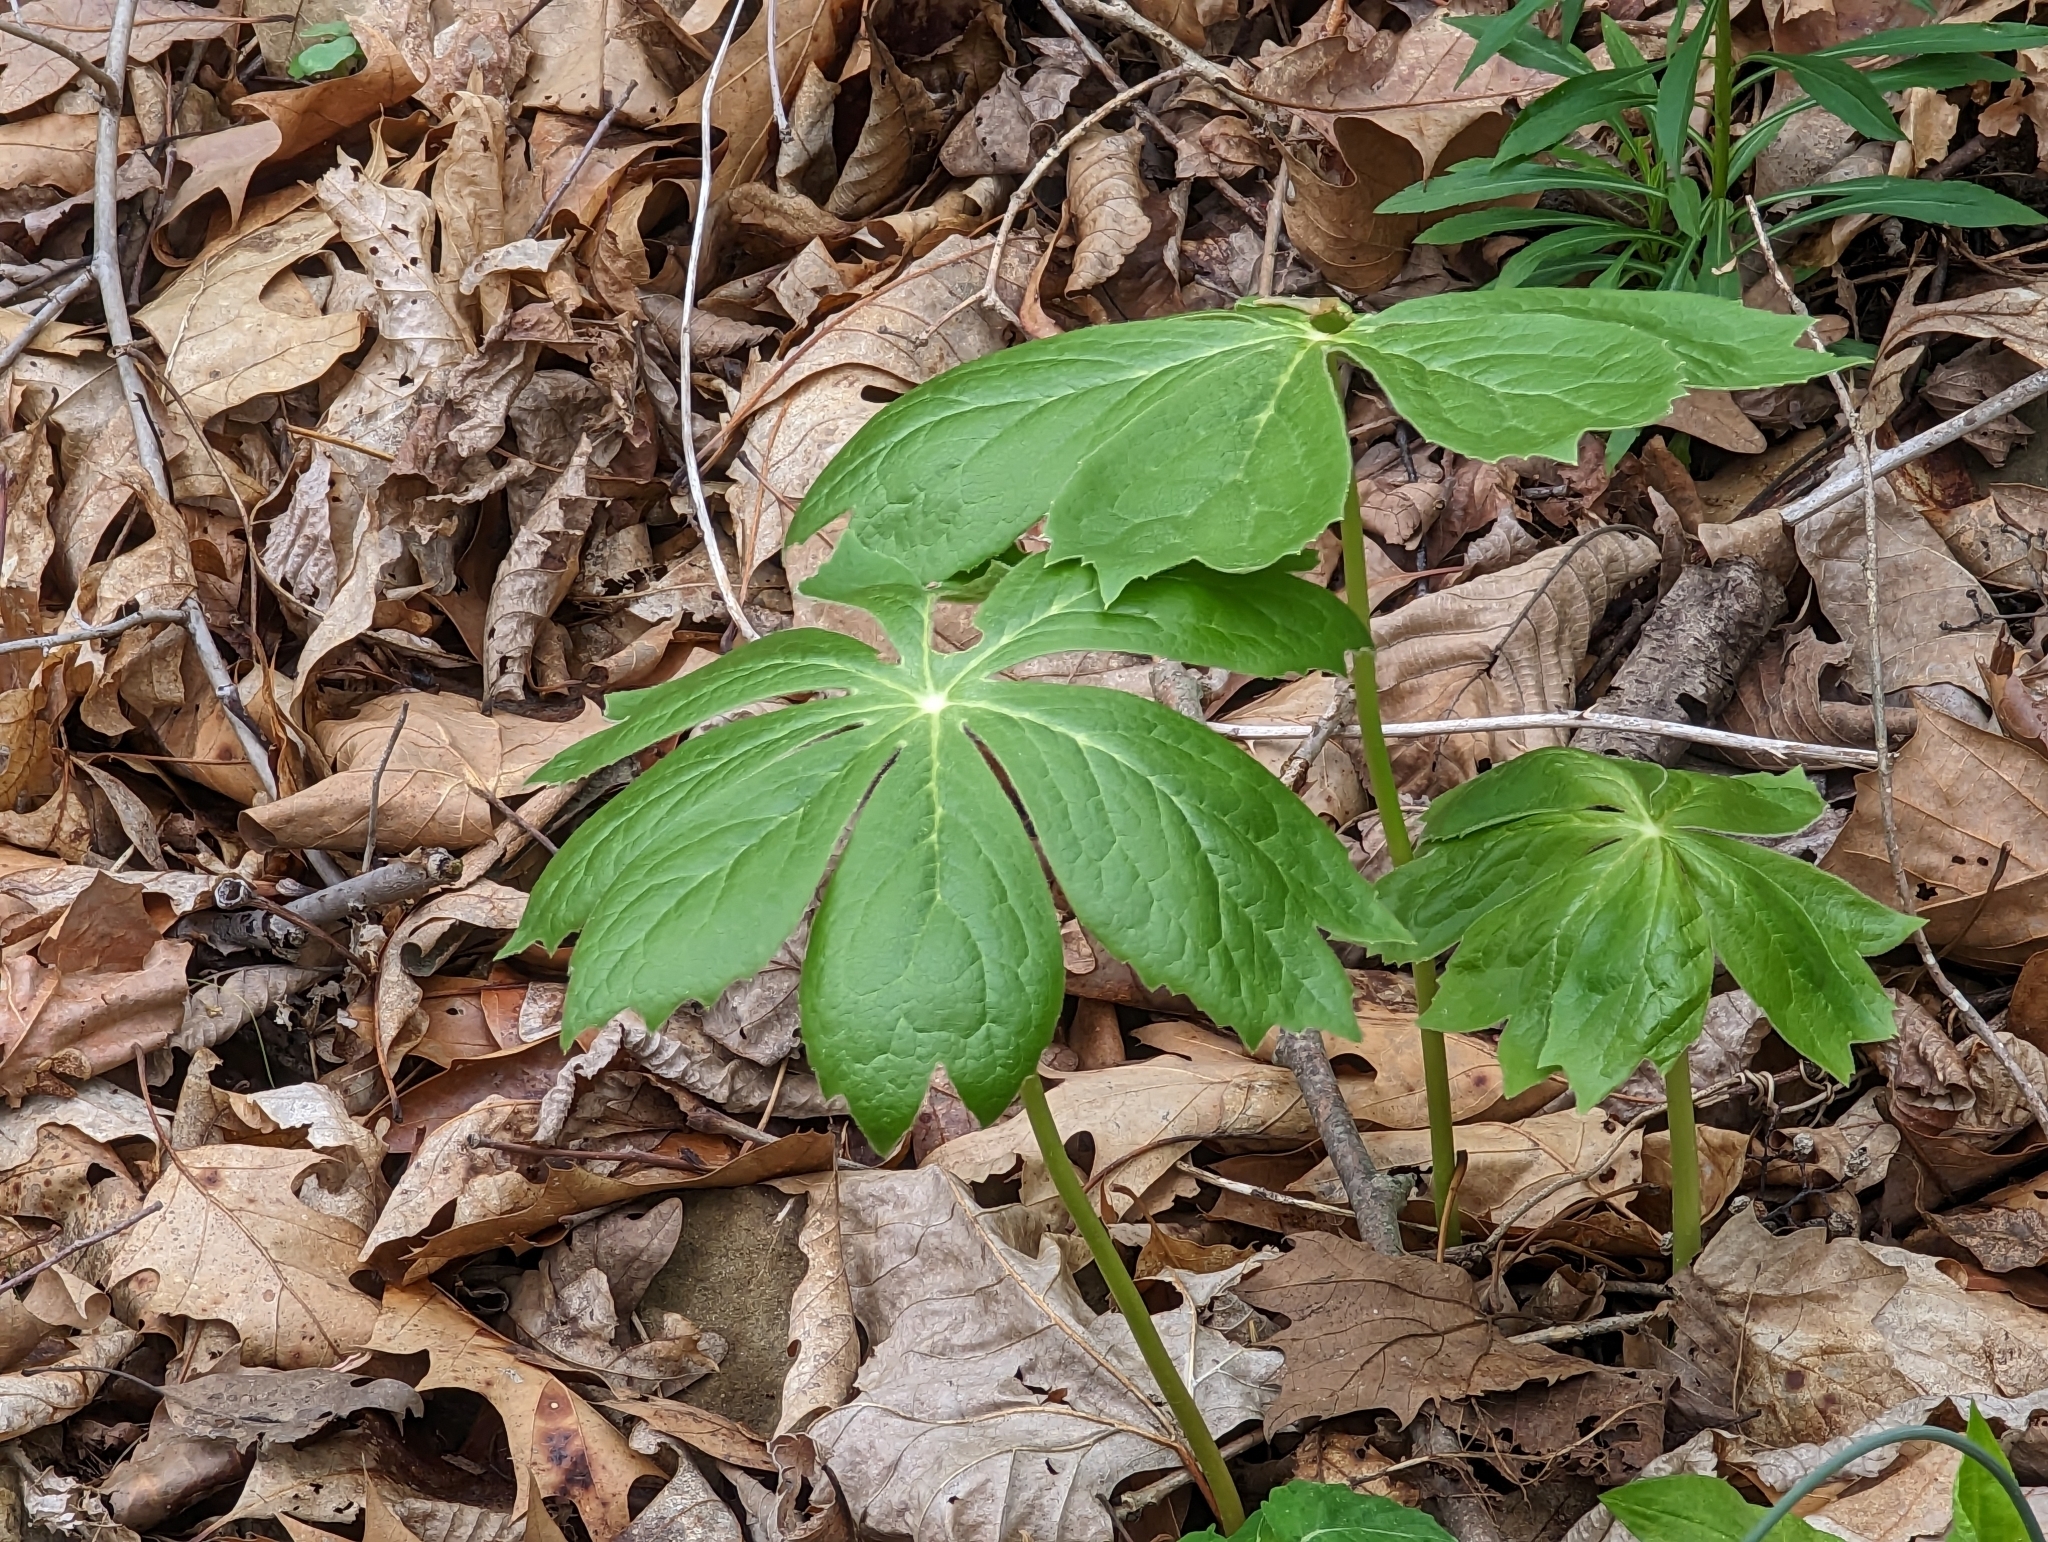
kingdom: Plantae
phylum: Tracheophyta
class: Magnoliopsida
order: Ranunculales
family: Berberidaceae
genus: Podophyllum
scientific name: Podophyllum peltatum
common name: Wild mandrake
